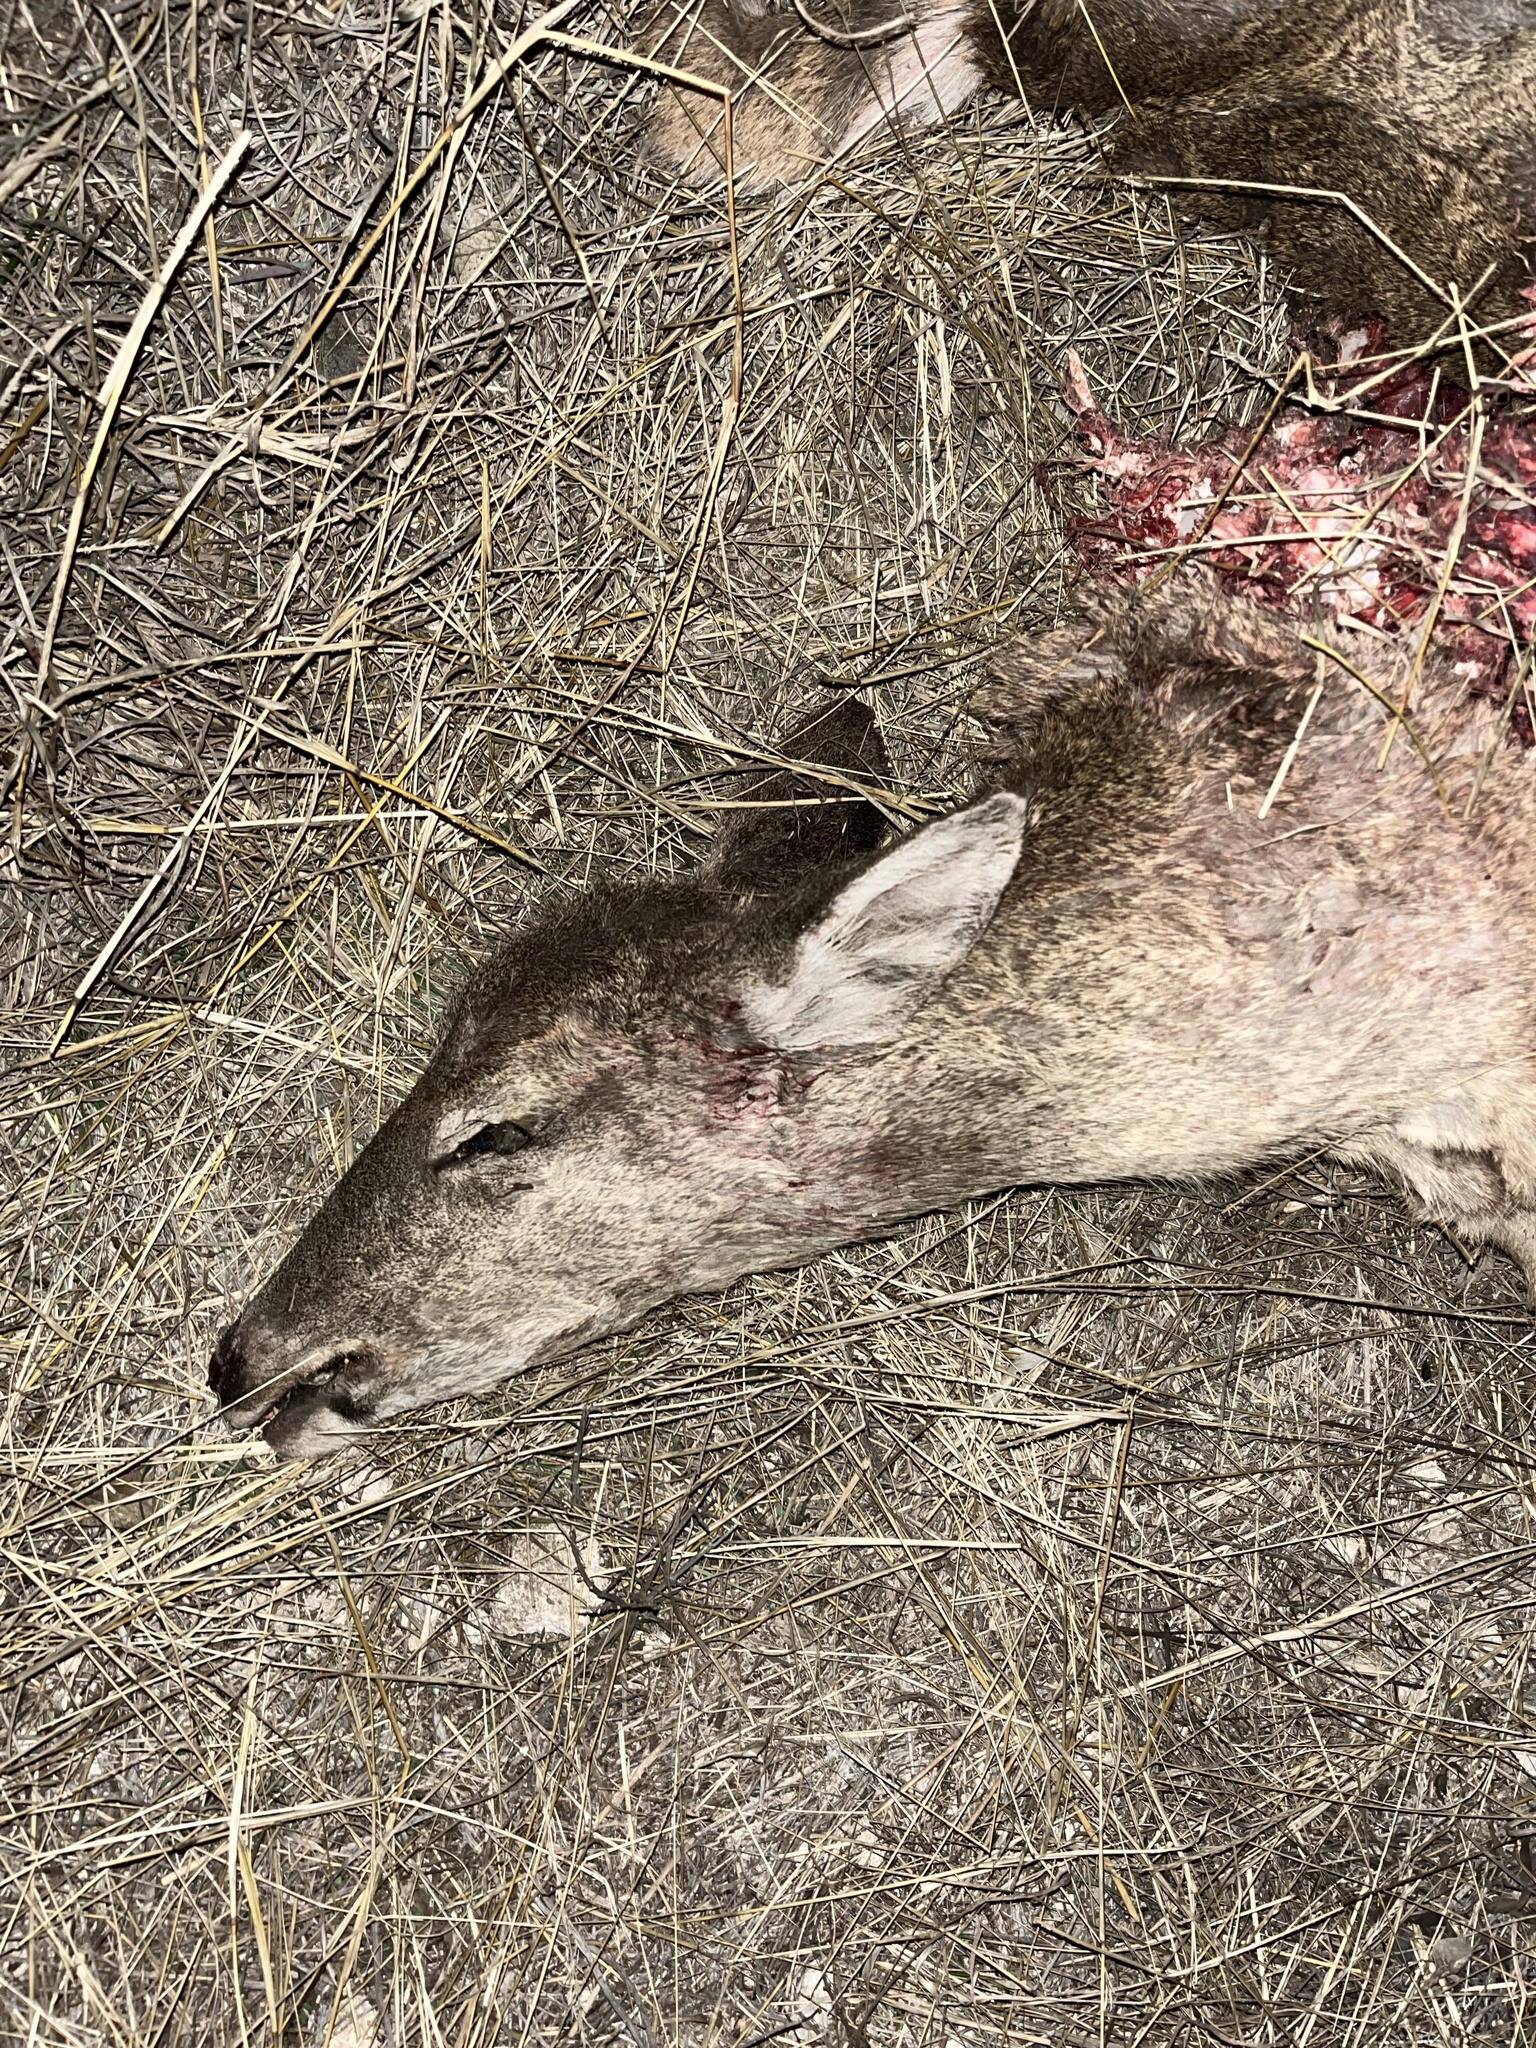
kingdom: Animalia
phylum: Chordata
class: Mammalia
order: Artiodactyla
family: Cervidae
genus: Odocoileus
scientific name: Odocoileus virginianus
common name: White-tailed deer
